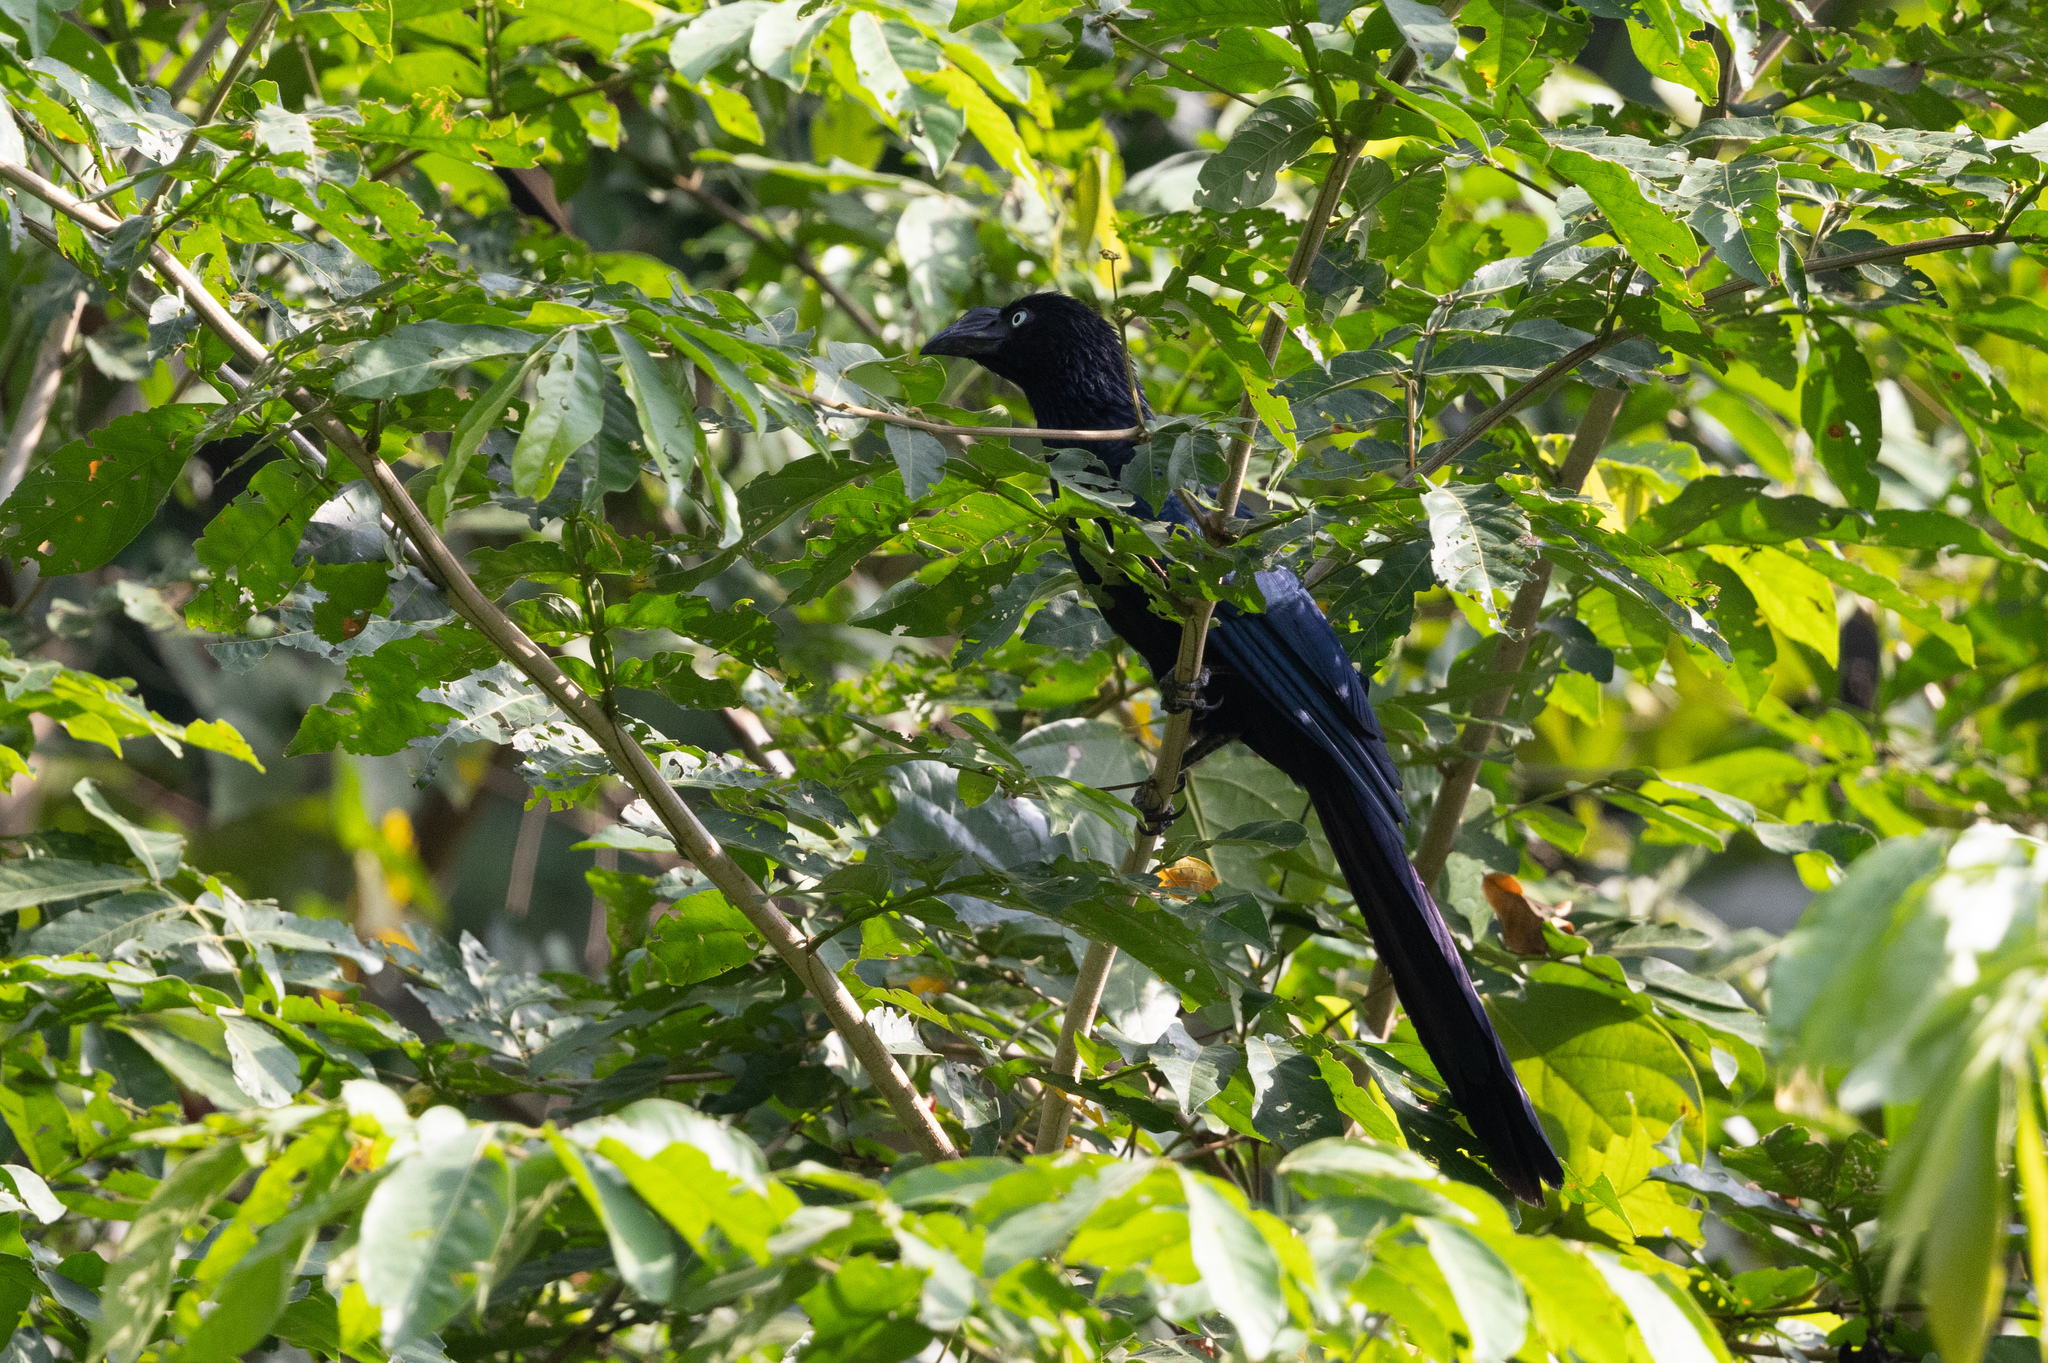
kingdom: Animalia
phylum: Chordata
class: Aves
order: Cuculiformes
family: Cuculidae
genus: Crotophaga
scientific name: Crotophaga major
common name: Greater ani
